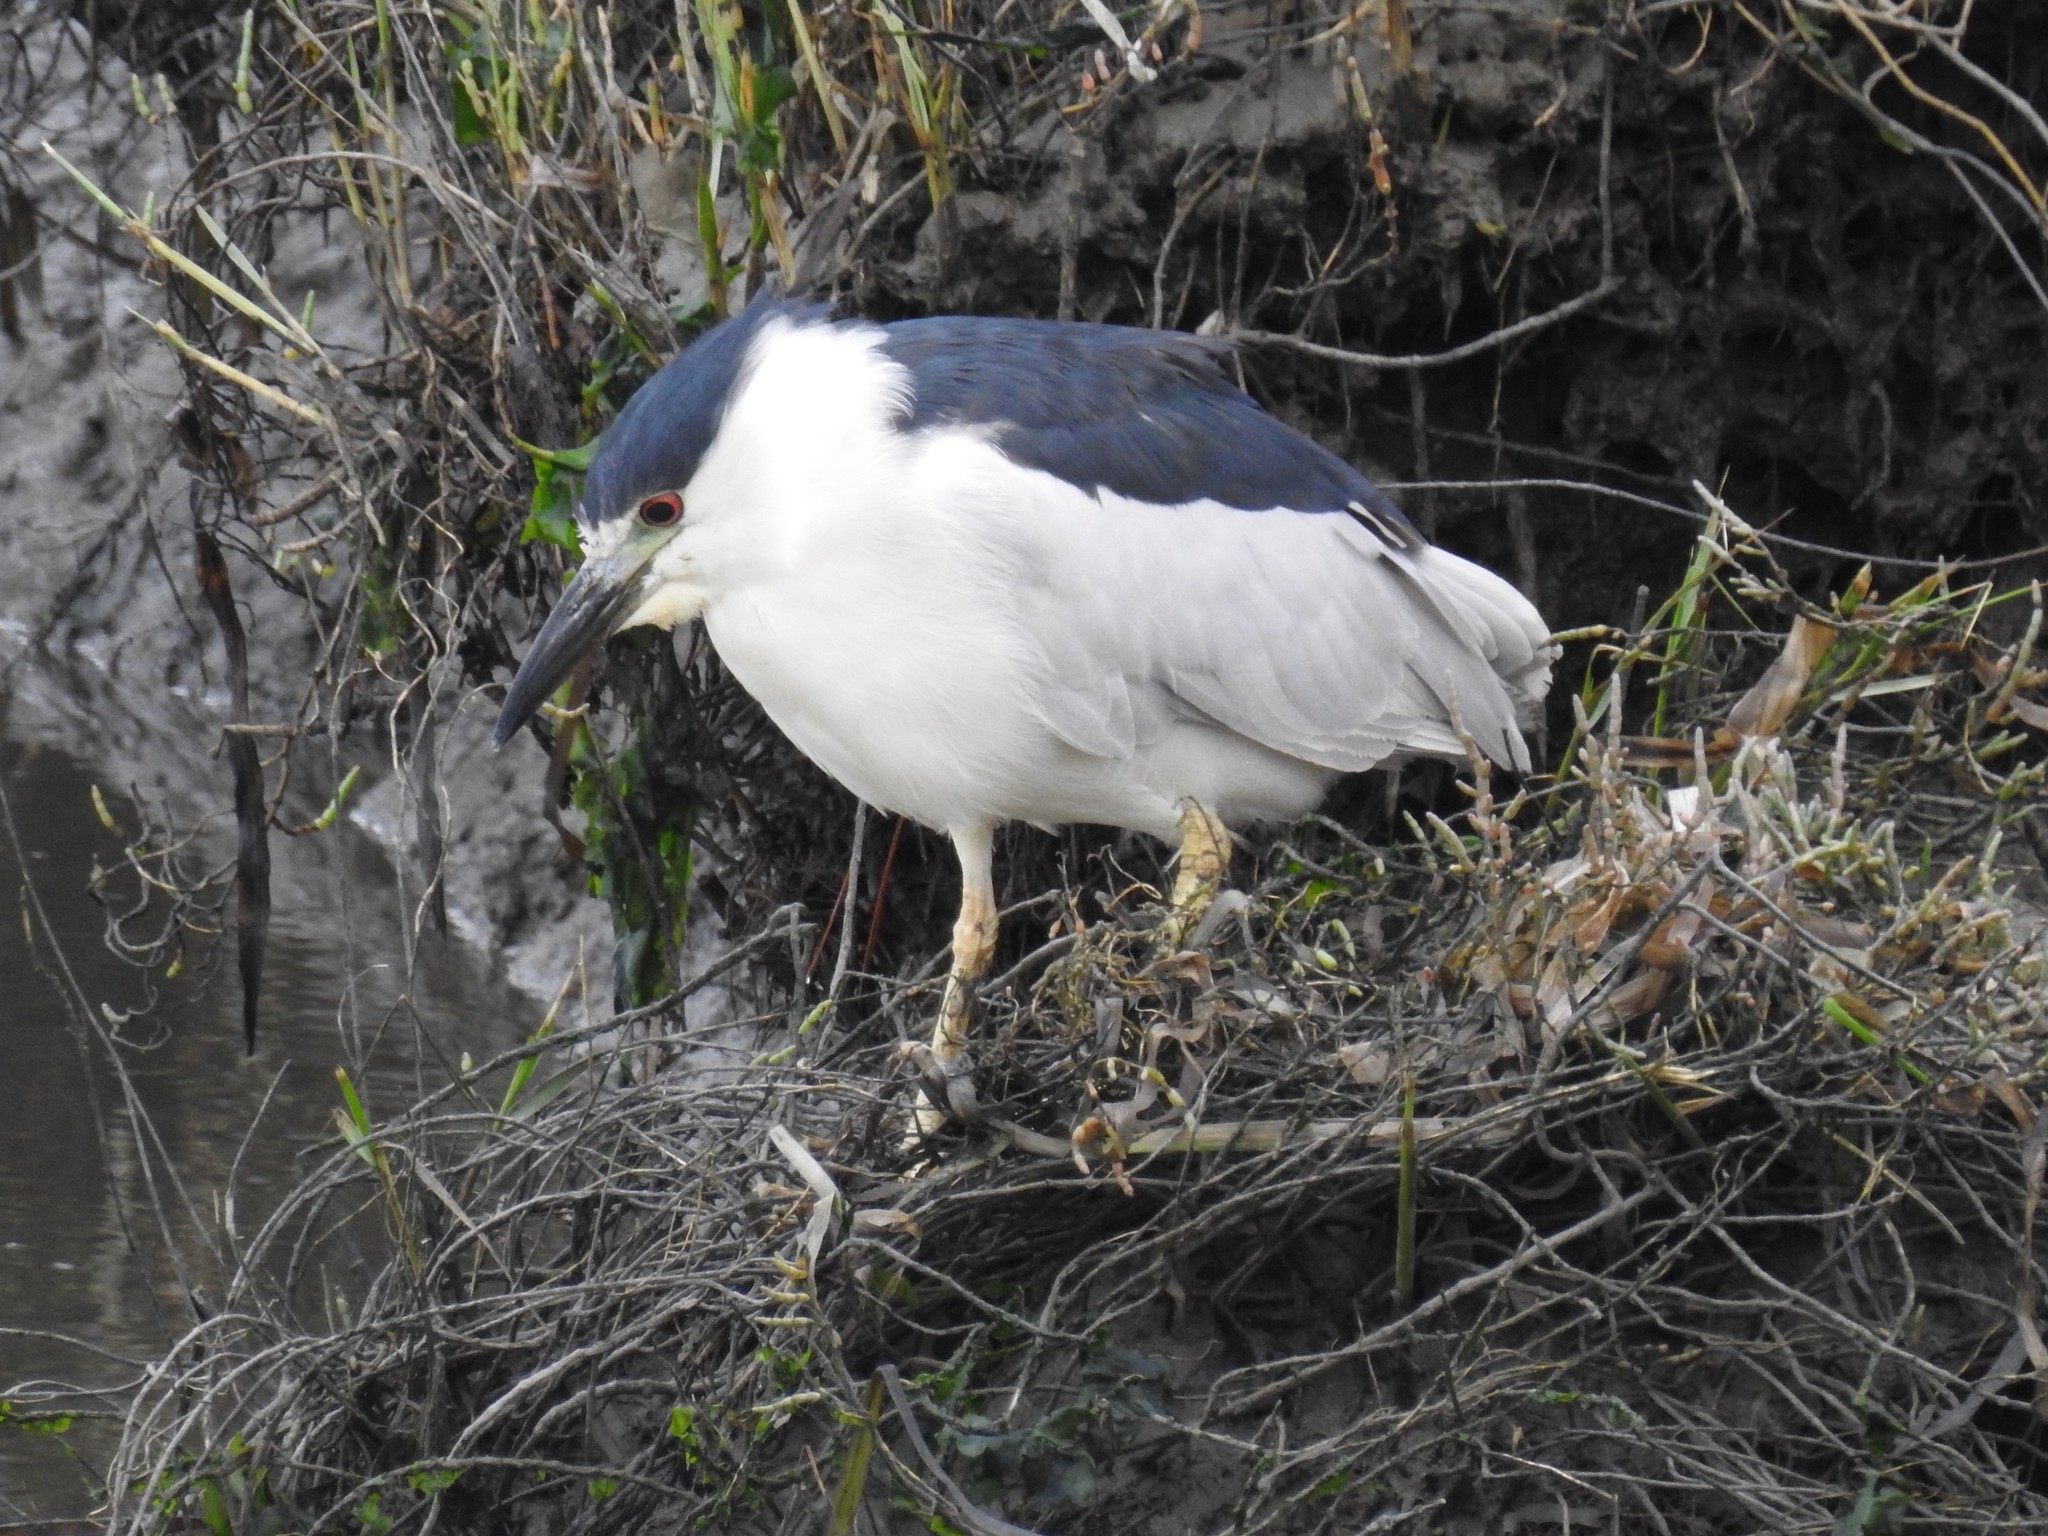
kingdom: Animalia
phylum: Chordata
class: Aves
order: Pelecaniformes
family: Ardeidae
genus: Nycticorax
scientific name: Nycticorax nycticorax
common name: Black-crowned night heron
